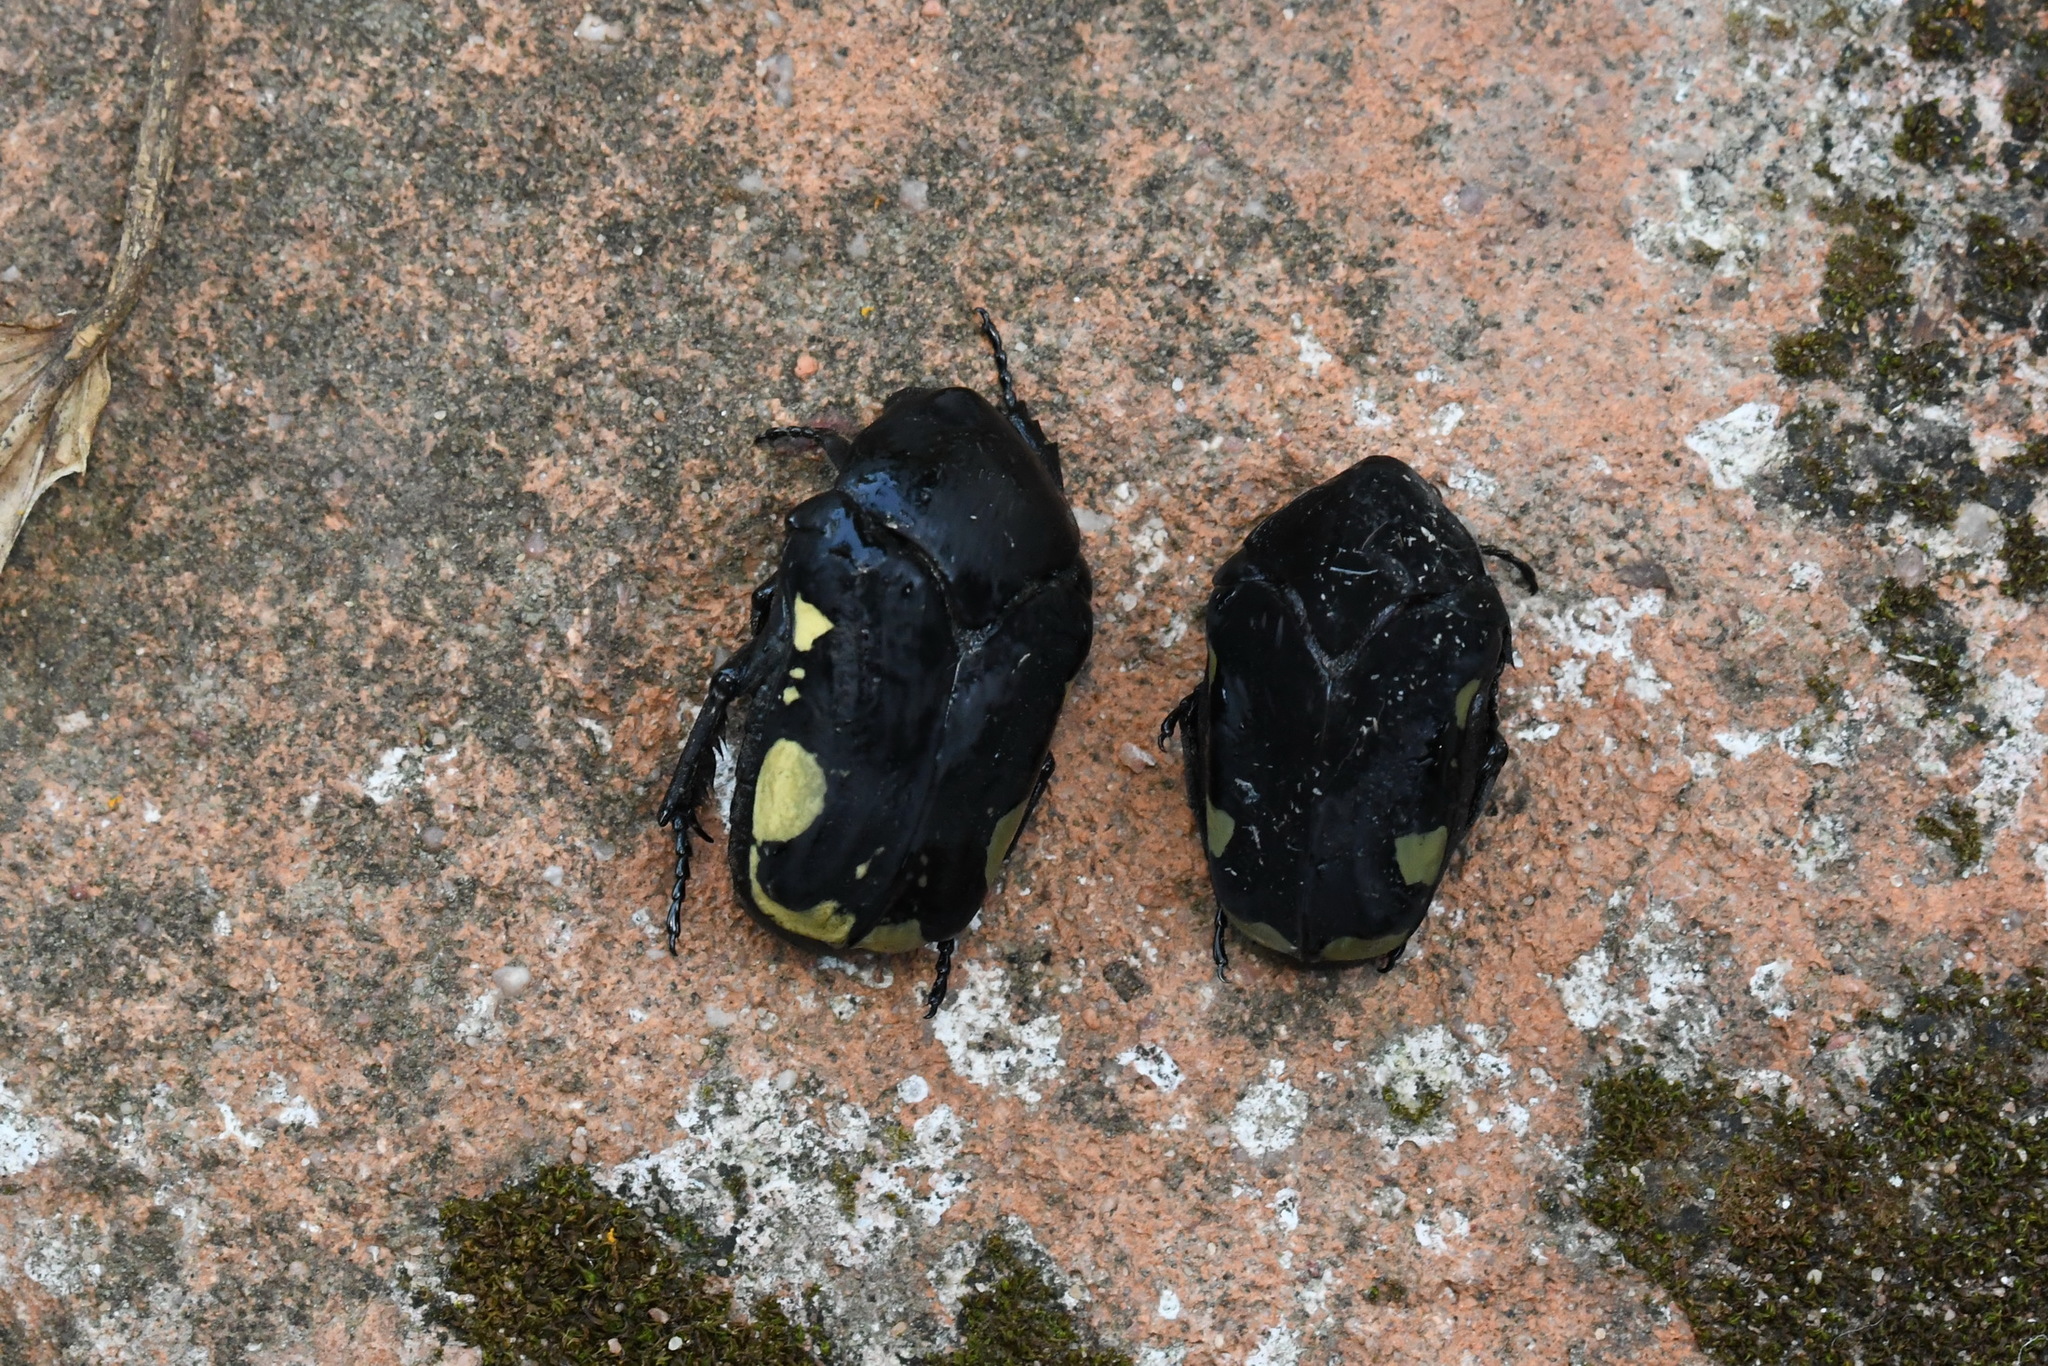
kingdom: Animalia
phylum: Arthropoda
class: Insecta
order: Coleoptera
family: Scarabaeidae
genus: Gymnetis
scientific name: Gymnetis bomplandi
